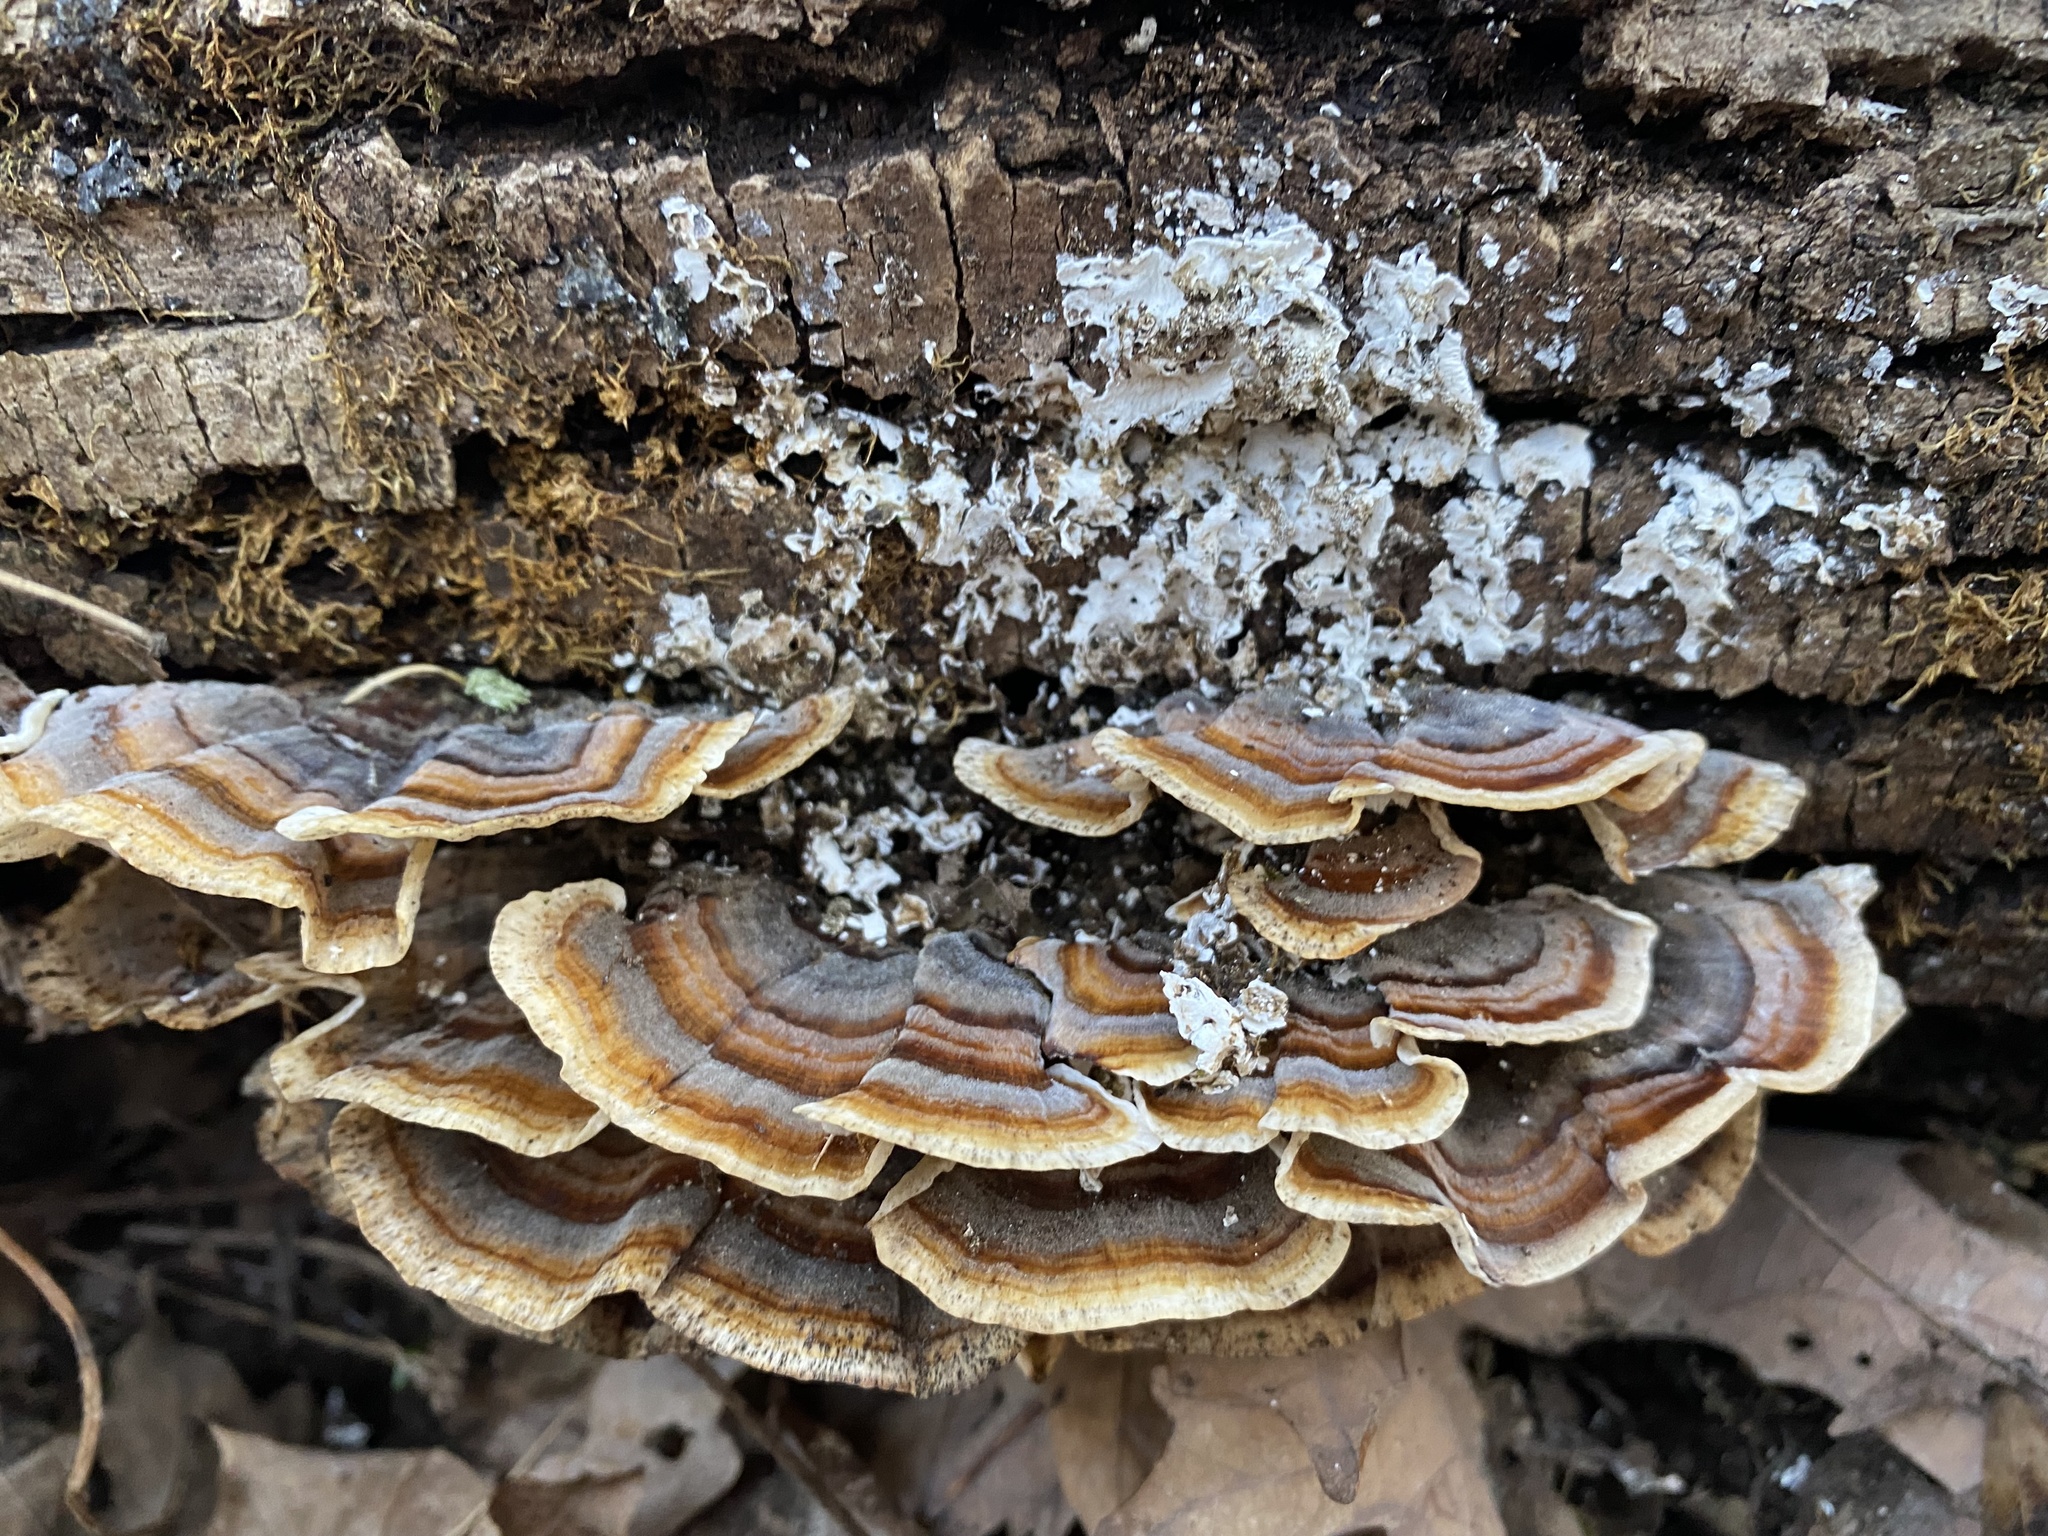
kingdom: Fungi
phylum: Basidiomycota
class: Agaricomycetes
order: Polyporales
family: Polyporaceae
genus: Trametes
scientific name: Trametes versicolor
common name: Turkeytail
